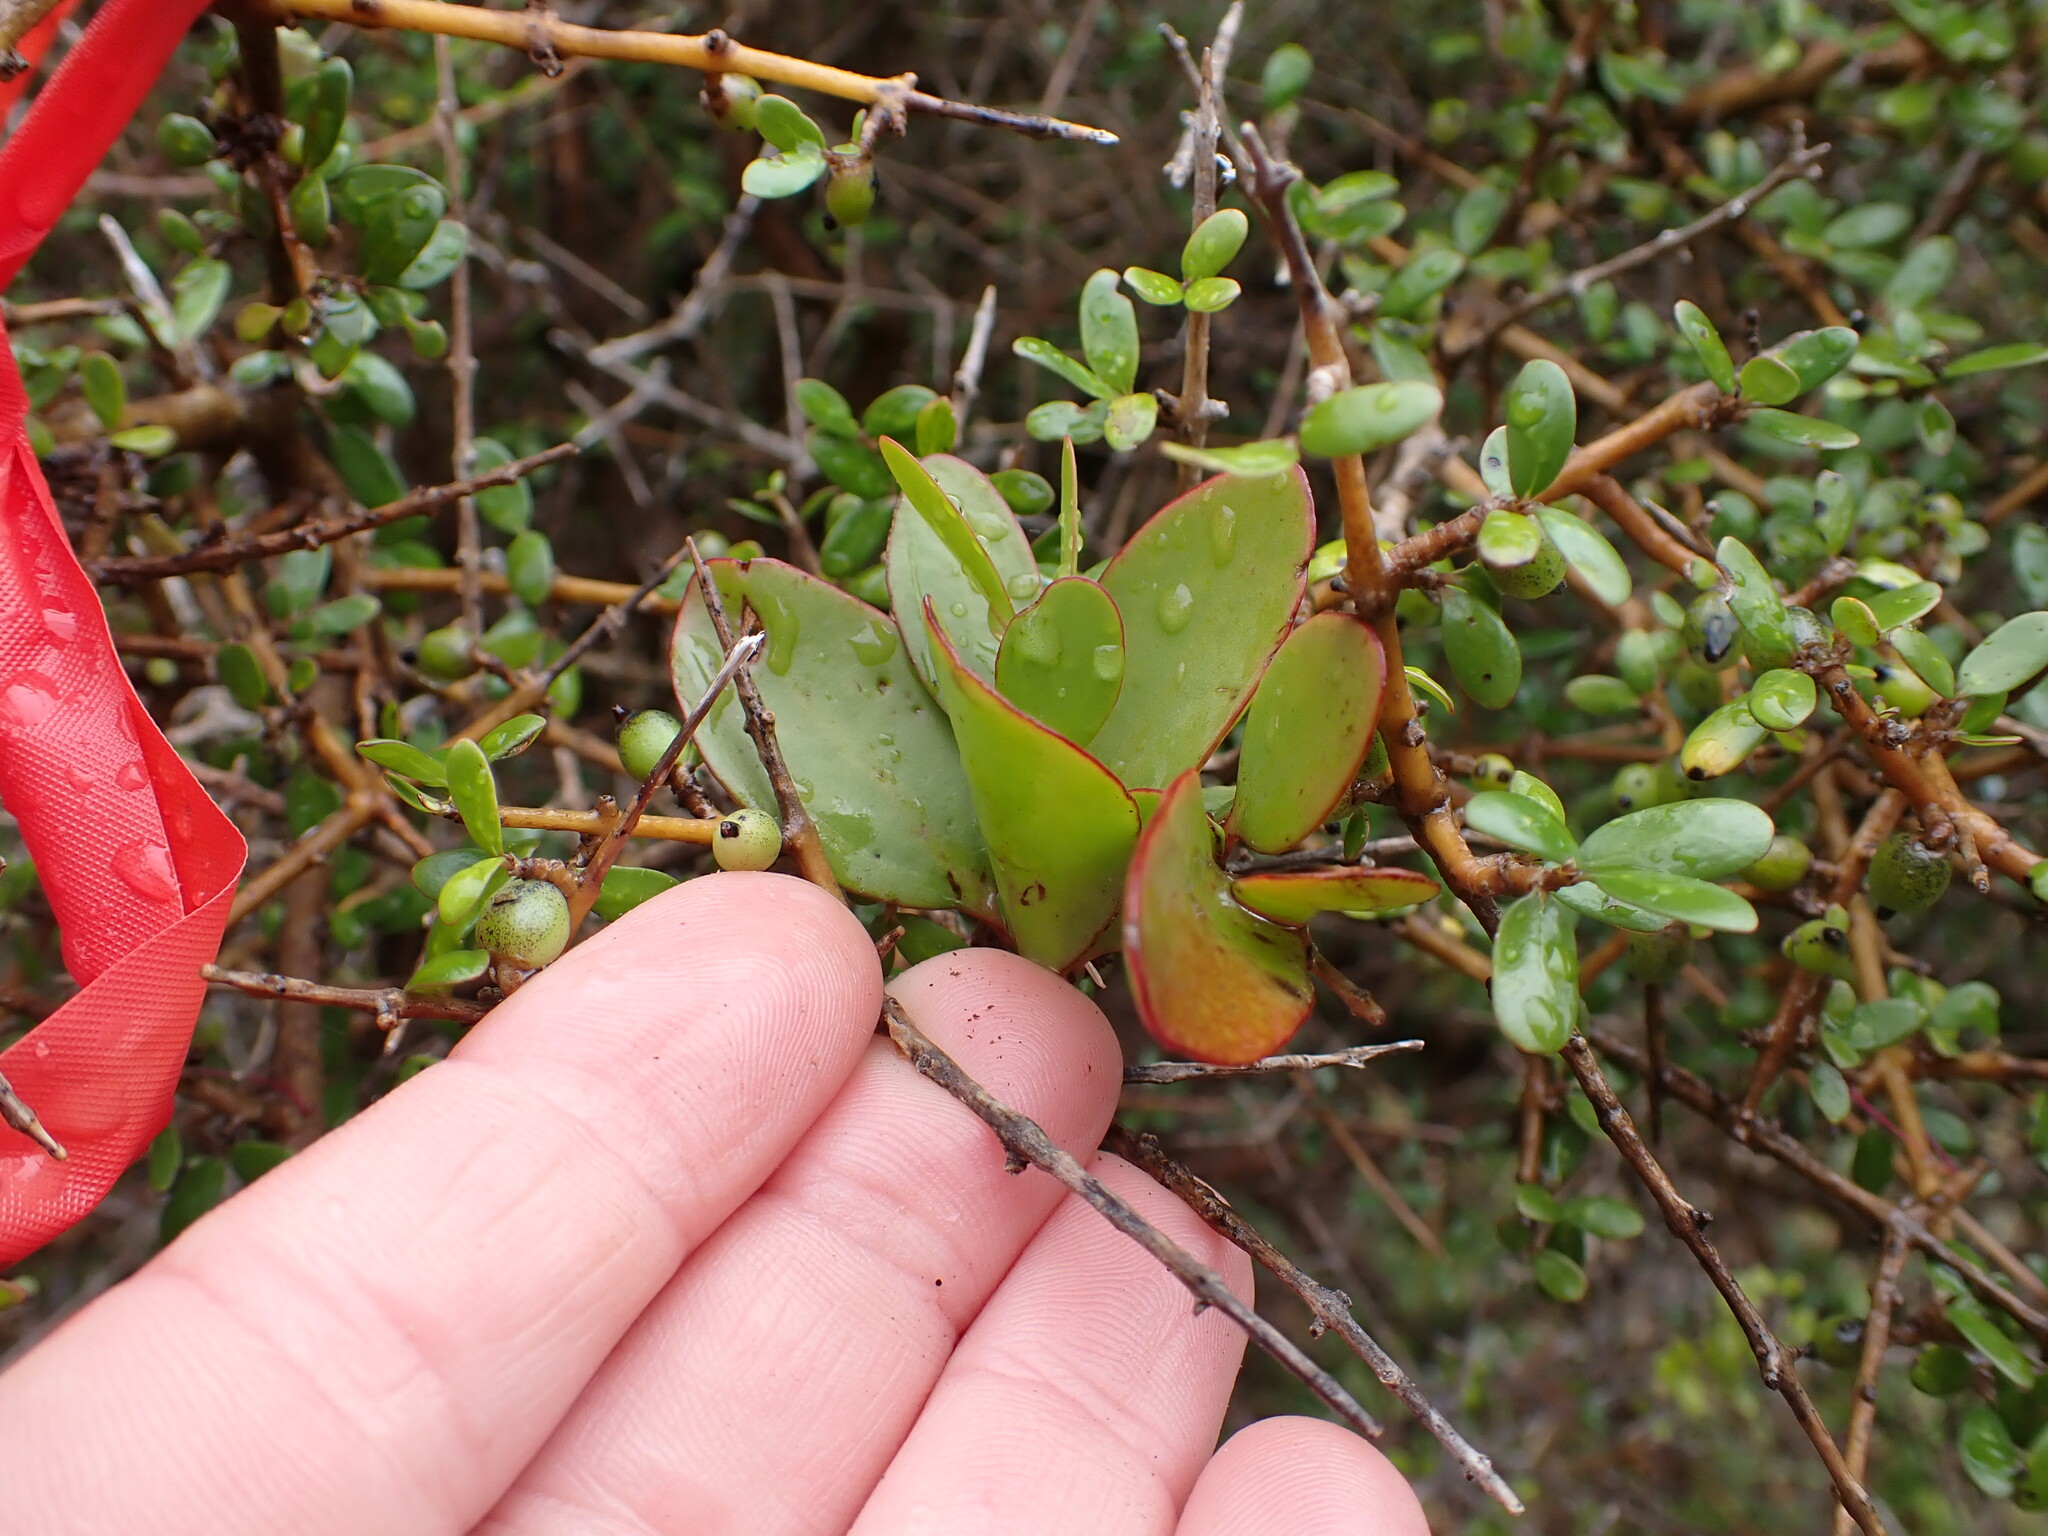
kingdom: Plantae
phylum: Tracheophyta
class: Magnoliopsida
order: Santalales
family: Loranthaceae
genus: Ileostylus
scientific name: Ileostylus micranthus
